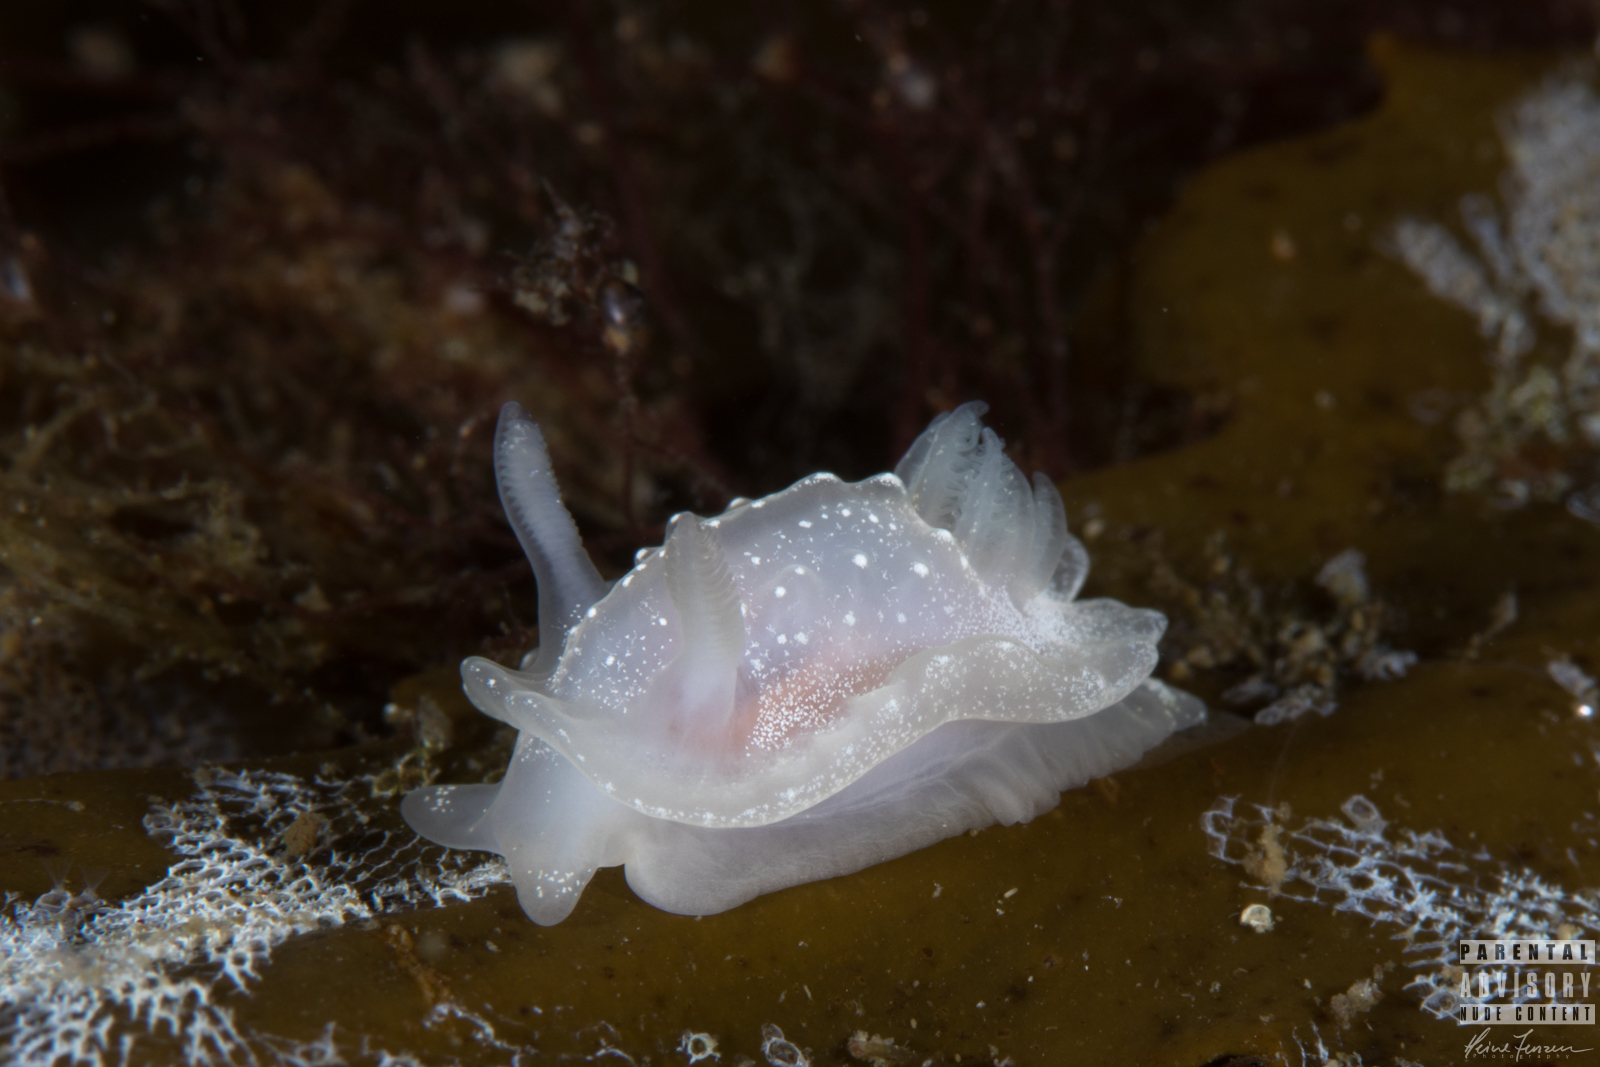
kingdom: Animalia
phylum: Mollusca
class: Gastropoda
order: Nudibranchia
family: Goniodorididae
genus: Okenia
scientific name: Okenia
